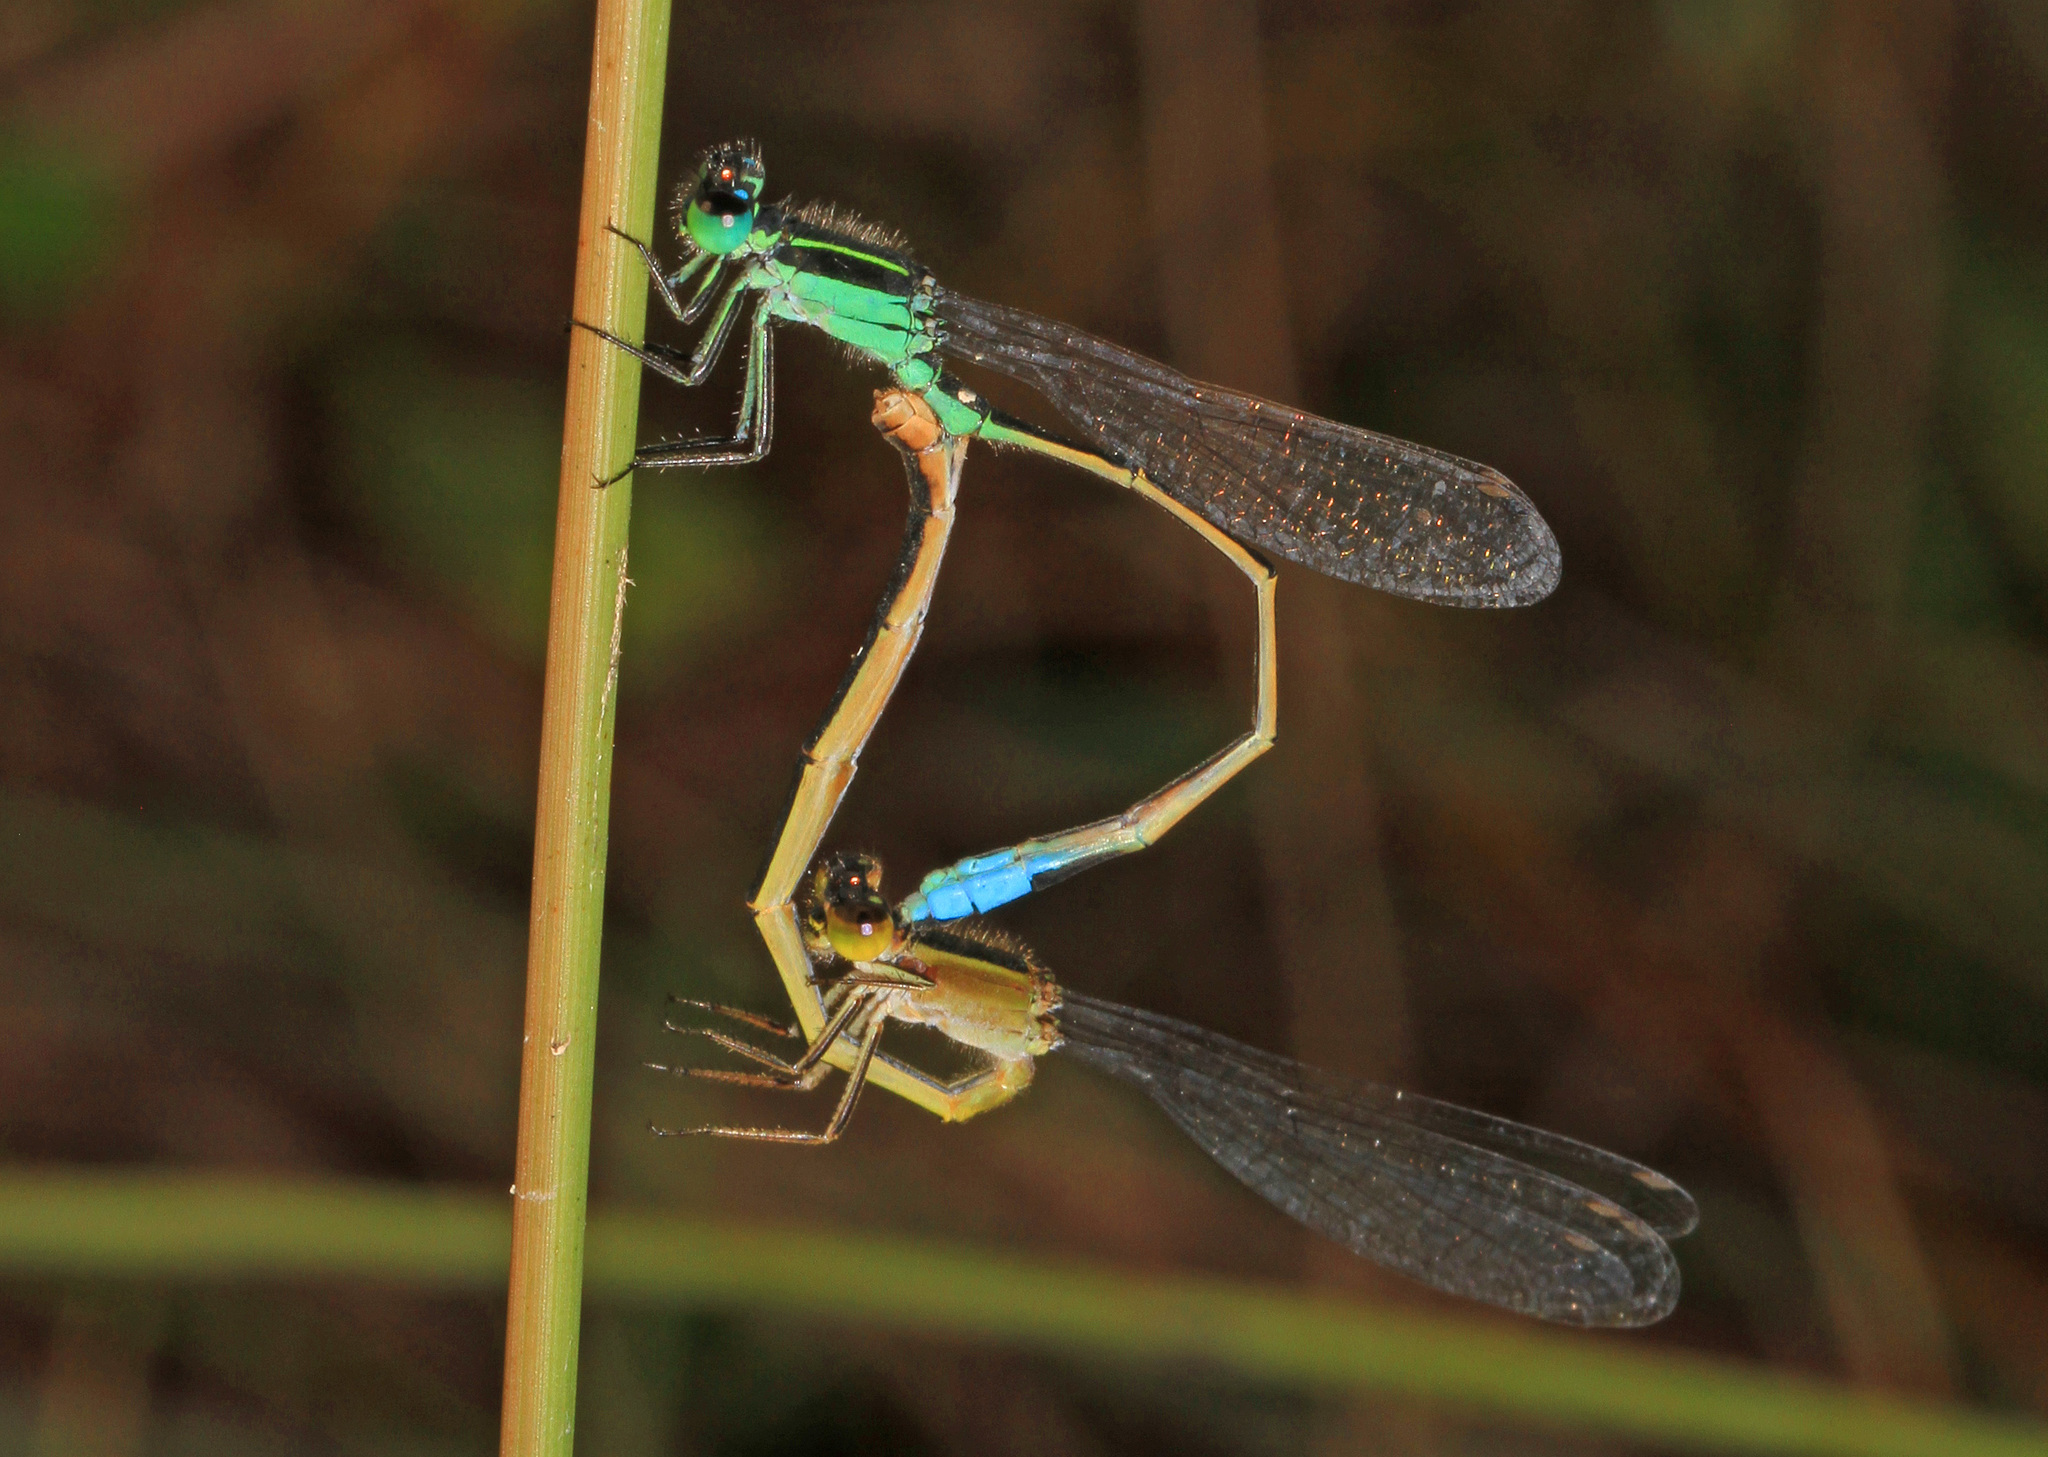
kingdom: Animalia
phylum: Arthropoda
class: Insecta
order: Odonata
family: Coenagrionidae
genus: Ischnura
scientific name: Ischnura ramburii
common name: Rambur's forktail
